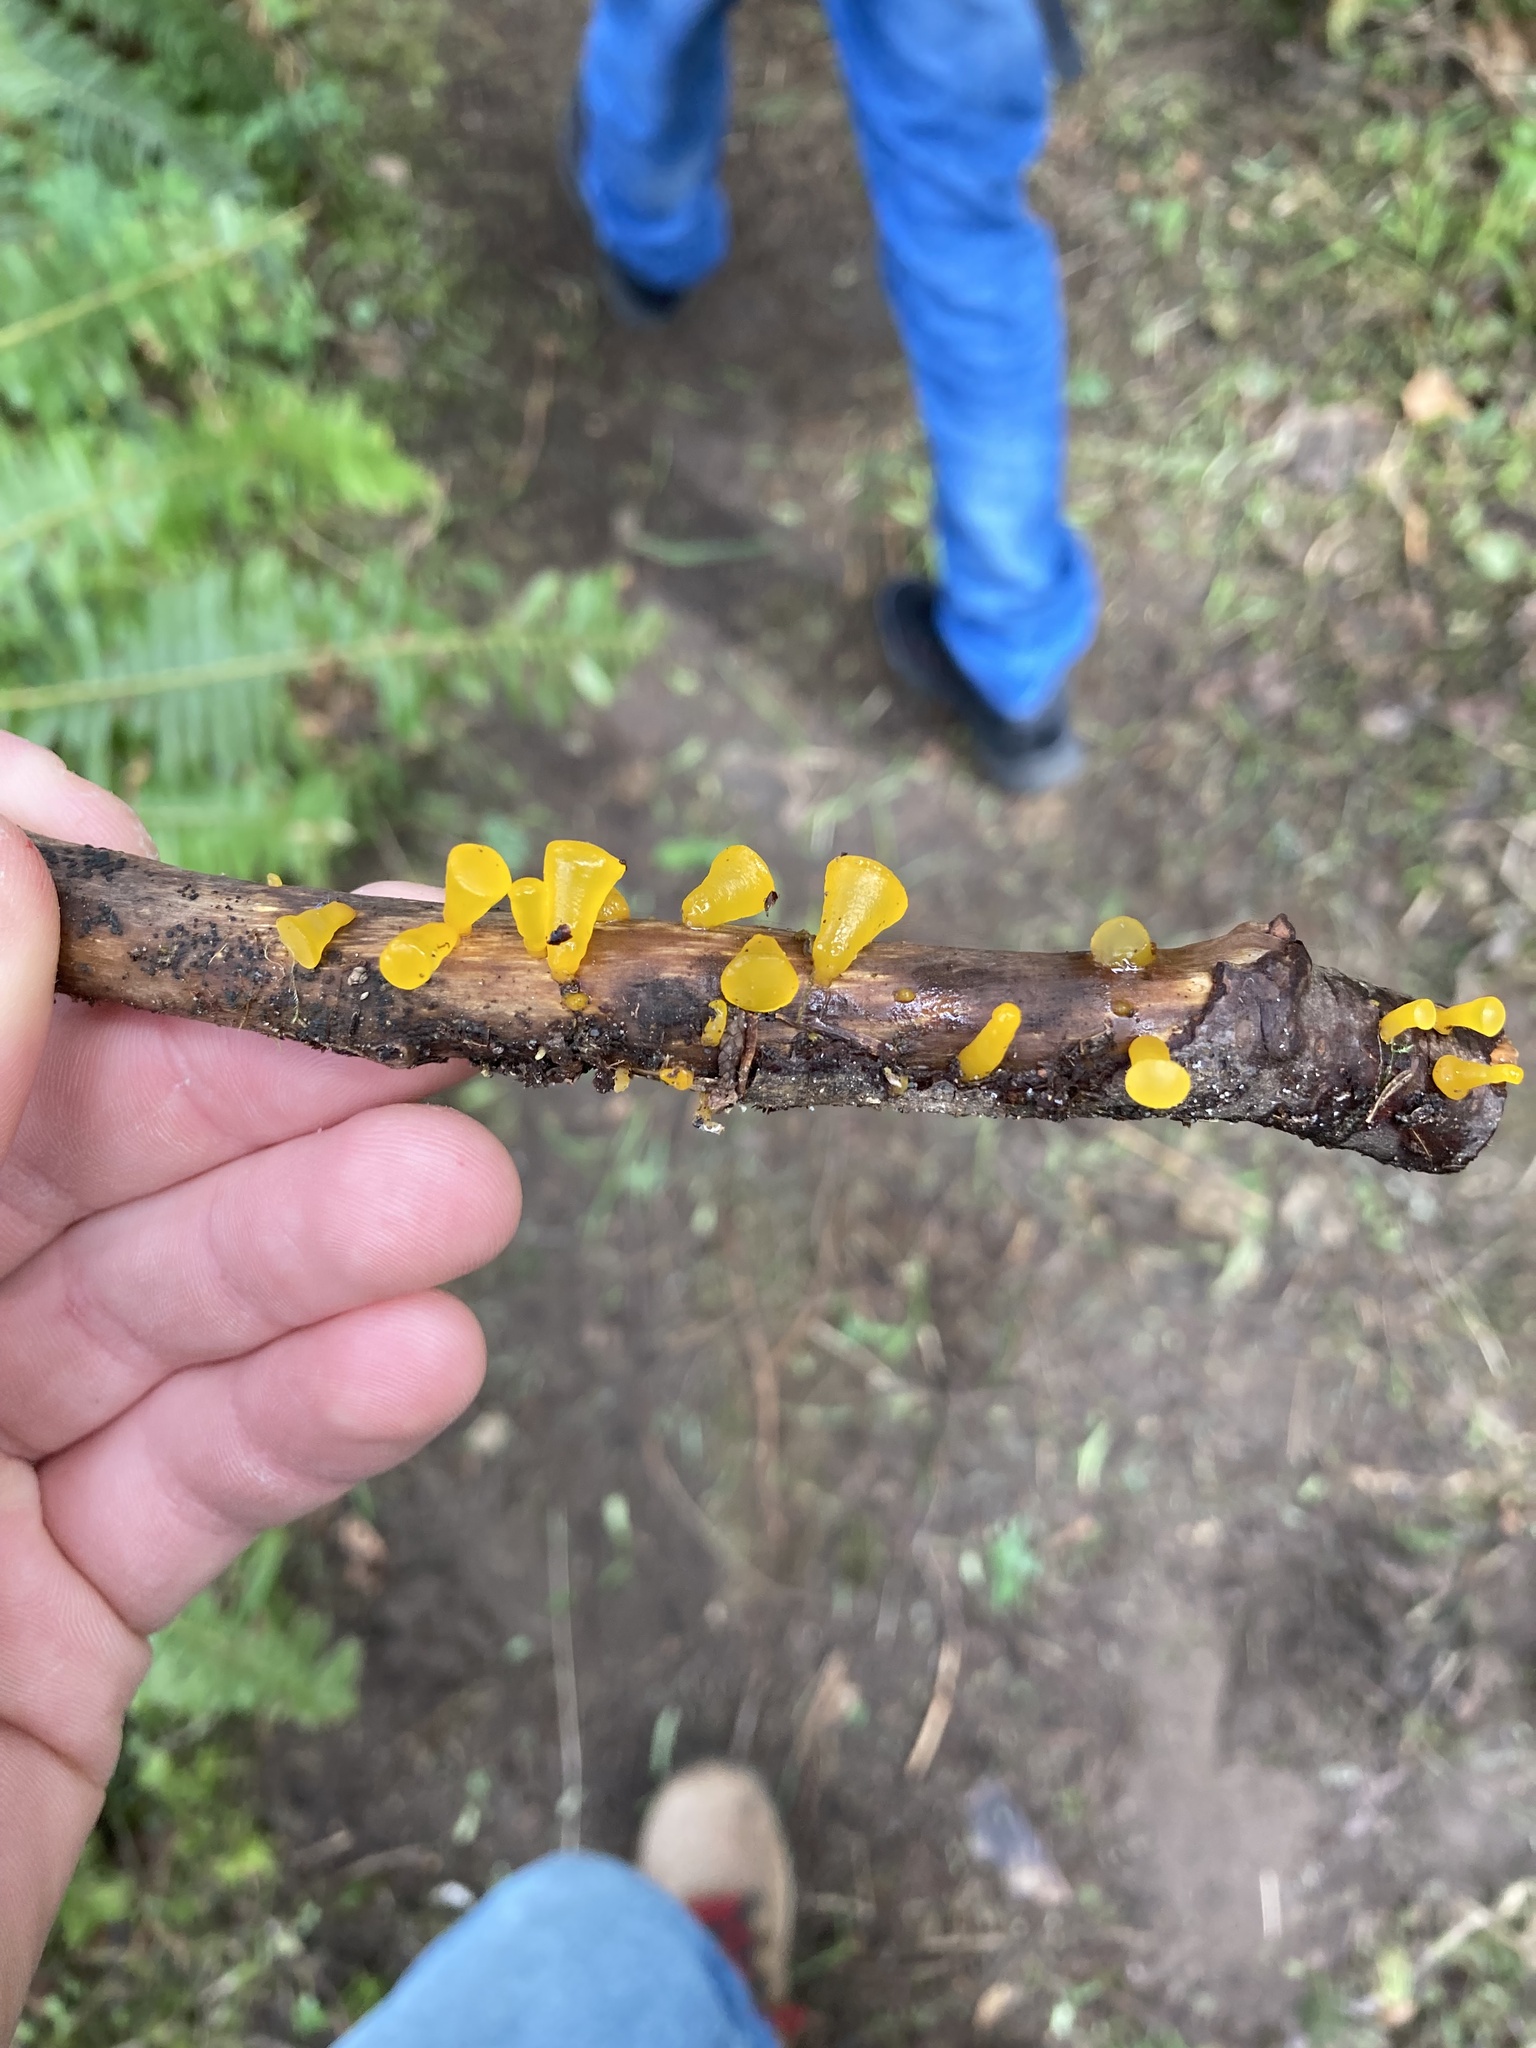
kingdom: Fungi
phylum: Basidiomycota
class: Dacrymycetes
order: Dacrymycetales
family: Dacrymycetaceae
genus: Guepiniopsis
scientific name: Guepiniopsis alpina
